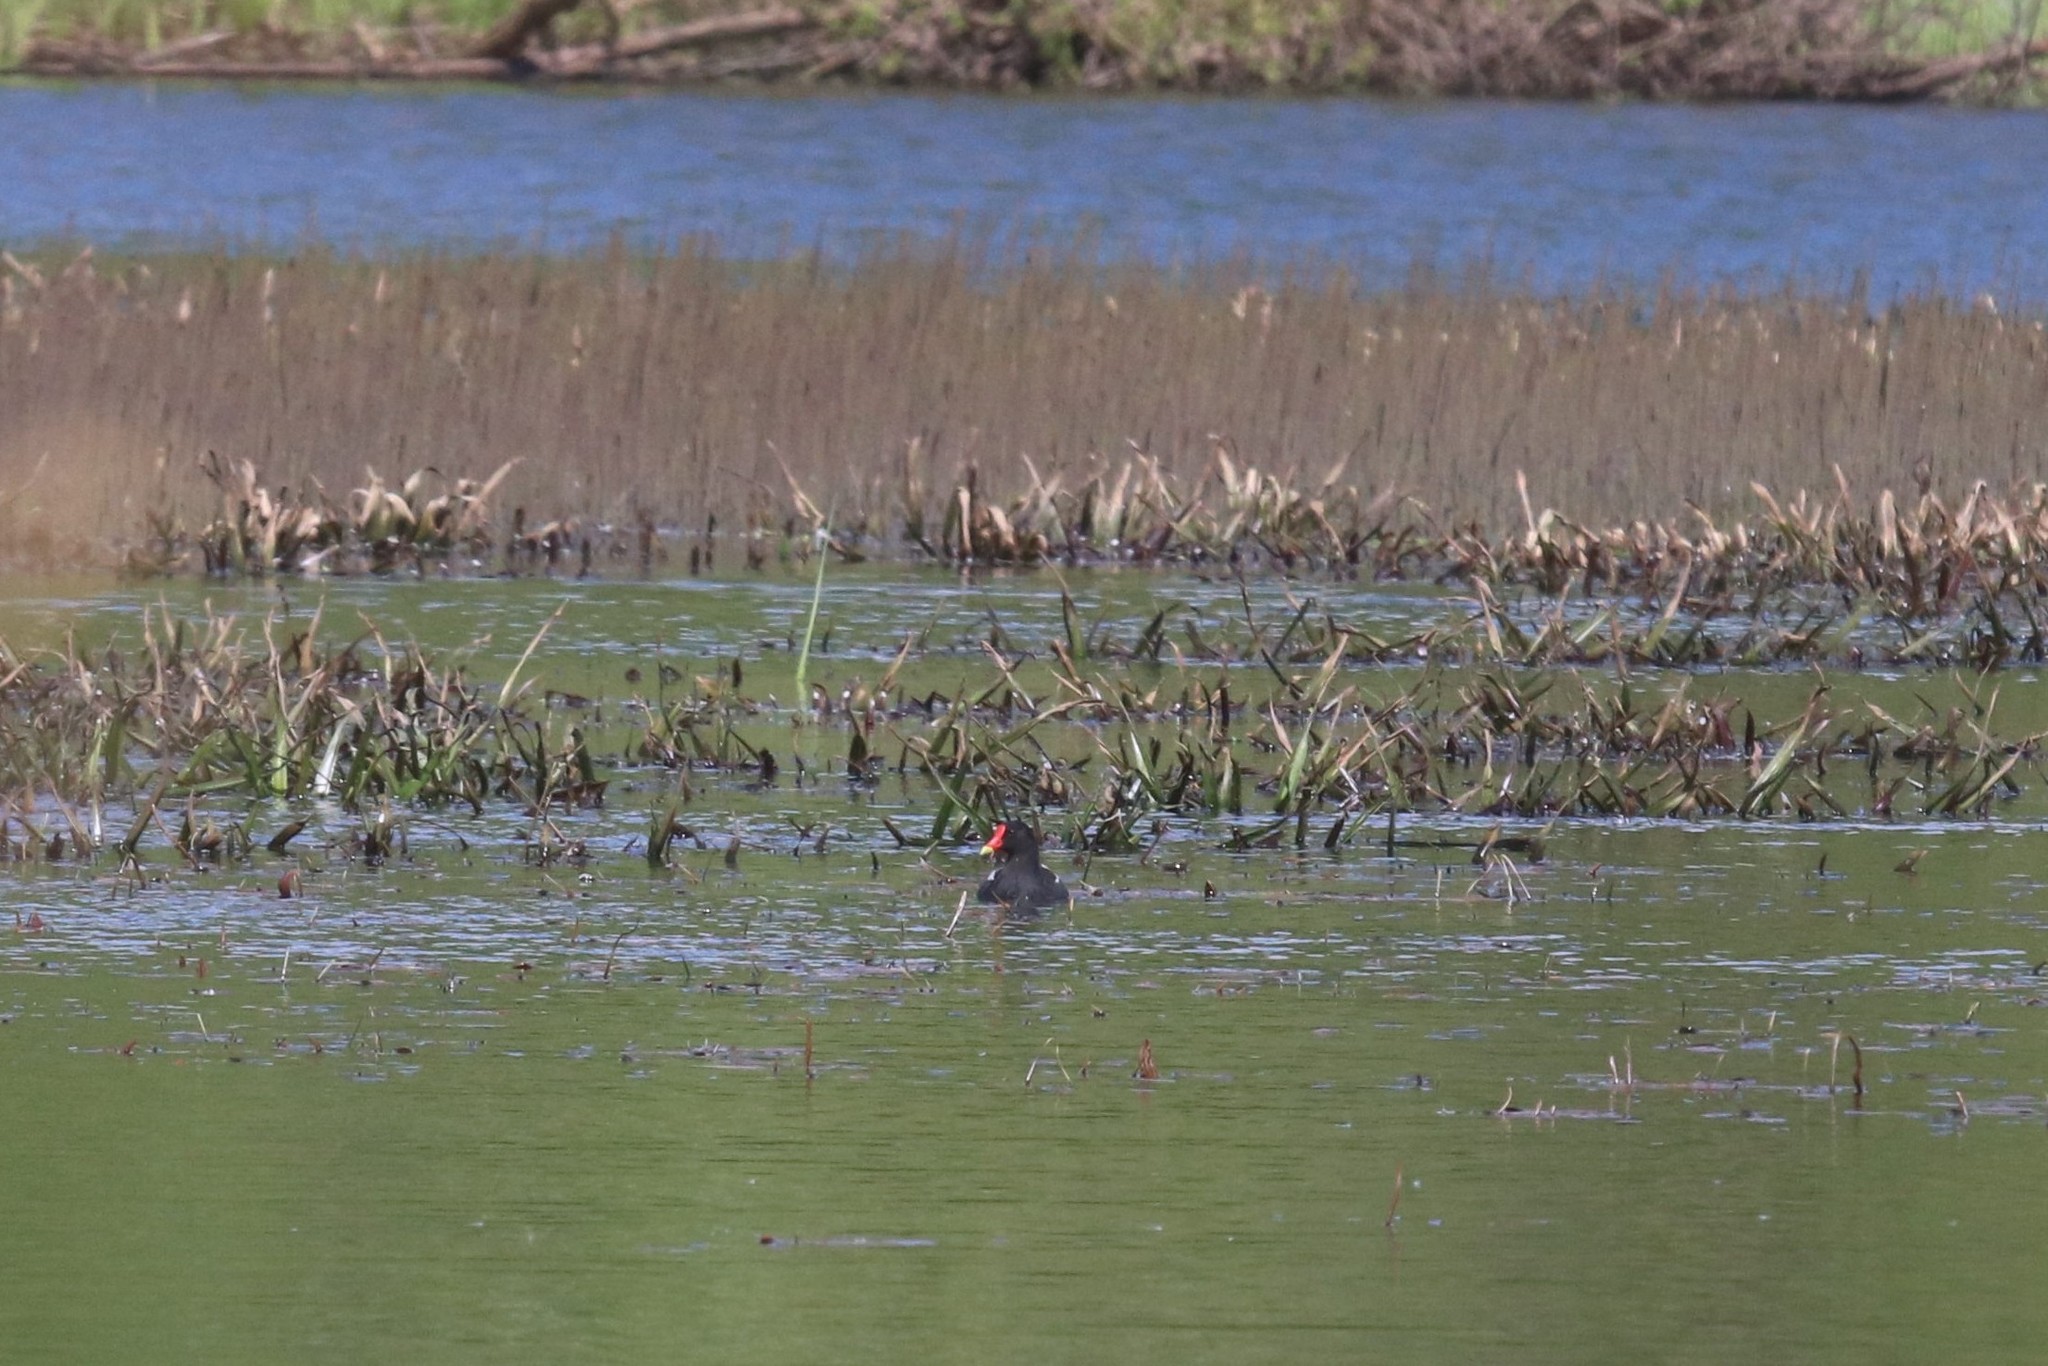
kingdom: Animalia
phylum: Chordata
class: Aves
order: Gruiformes
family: Rallidae
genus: Gallinula
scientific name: Gallinula chloropus
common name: Common moorhen
